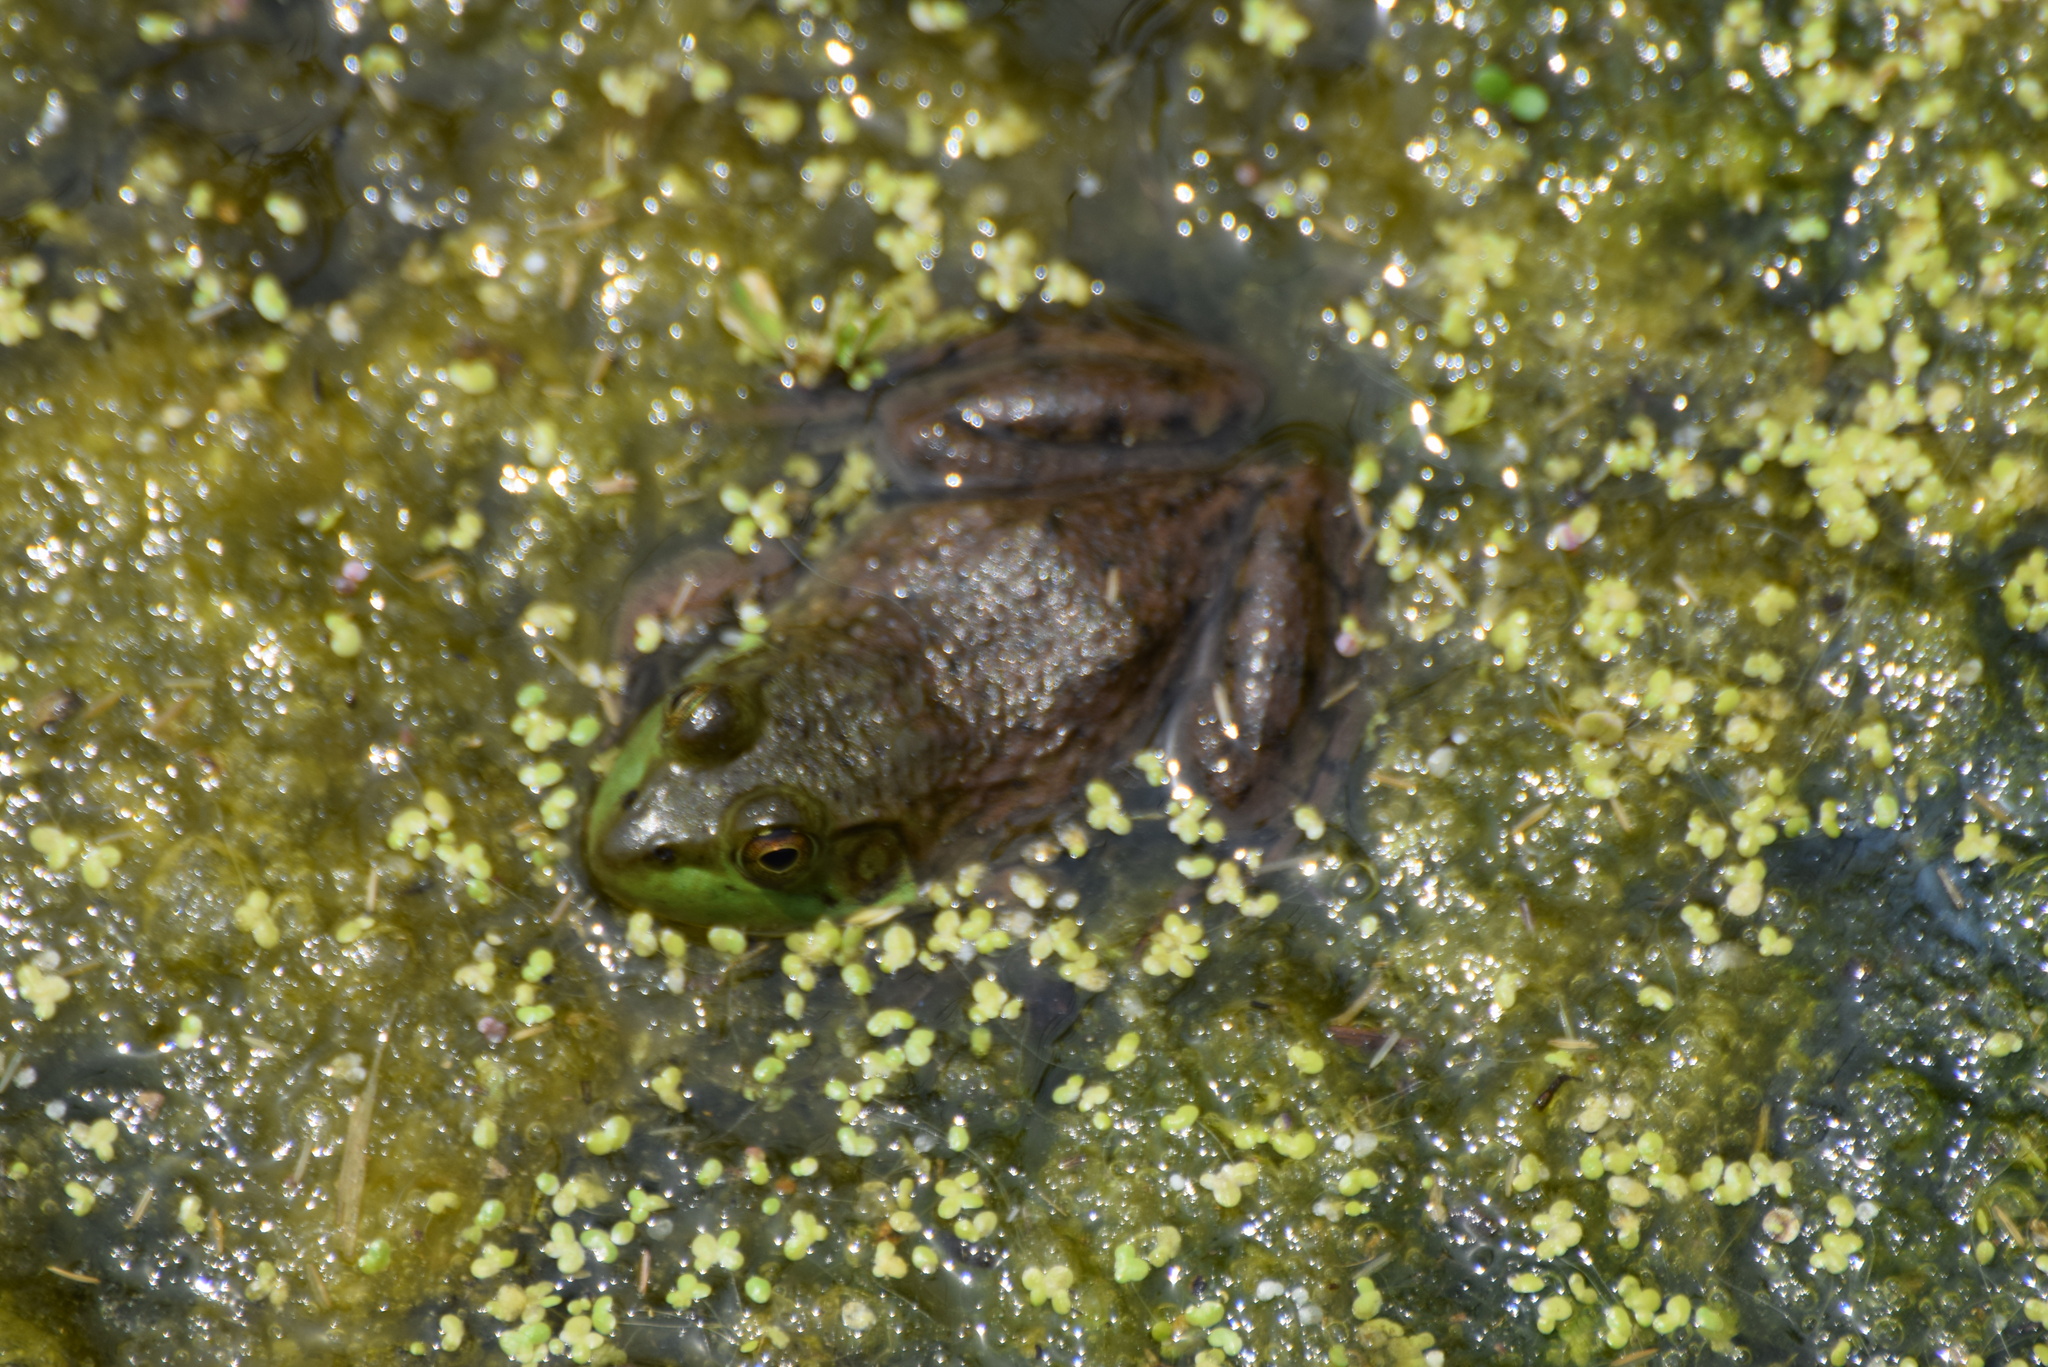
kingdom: Animalia
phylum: Chordata
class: Amphibia
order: Anura
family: Ranidae
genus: Lithobates
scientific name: Lithobates catesbeianus
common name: American bullfrog
